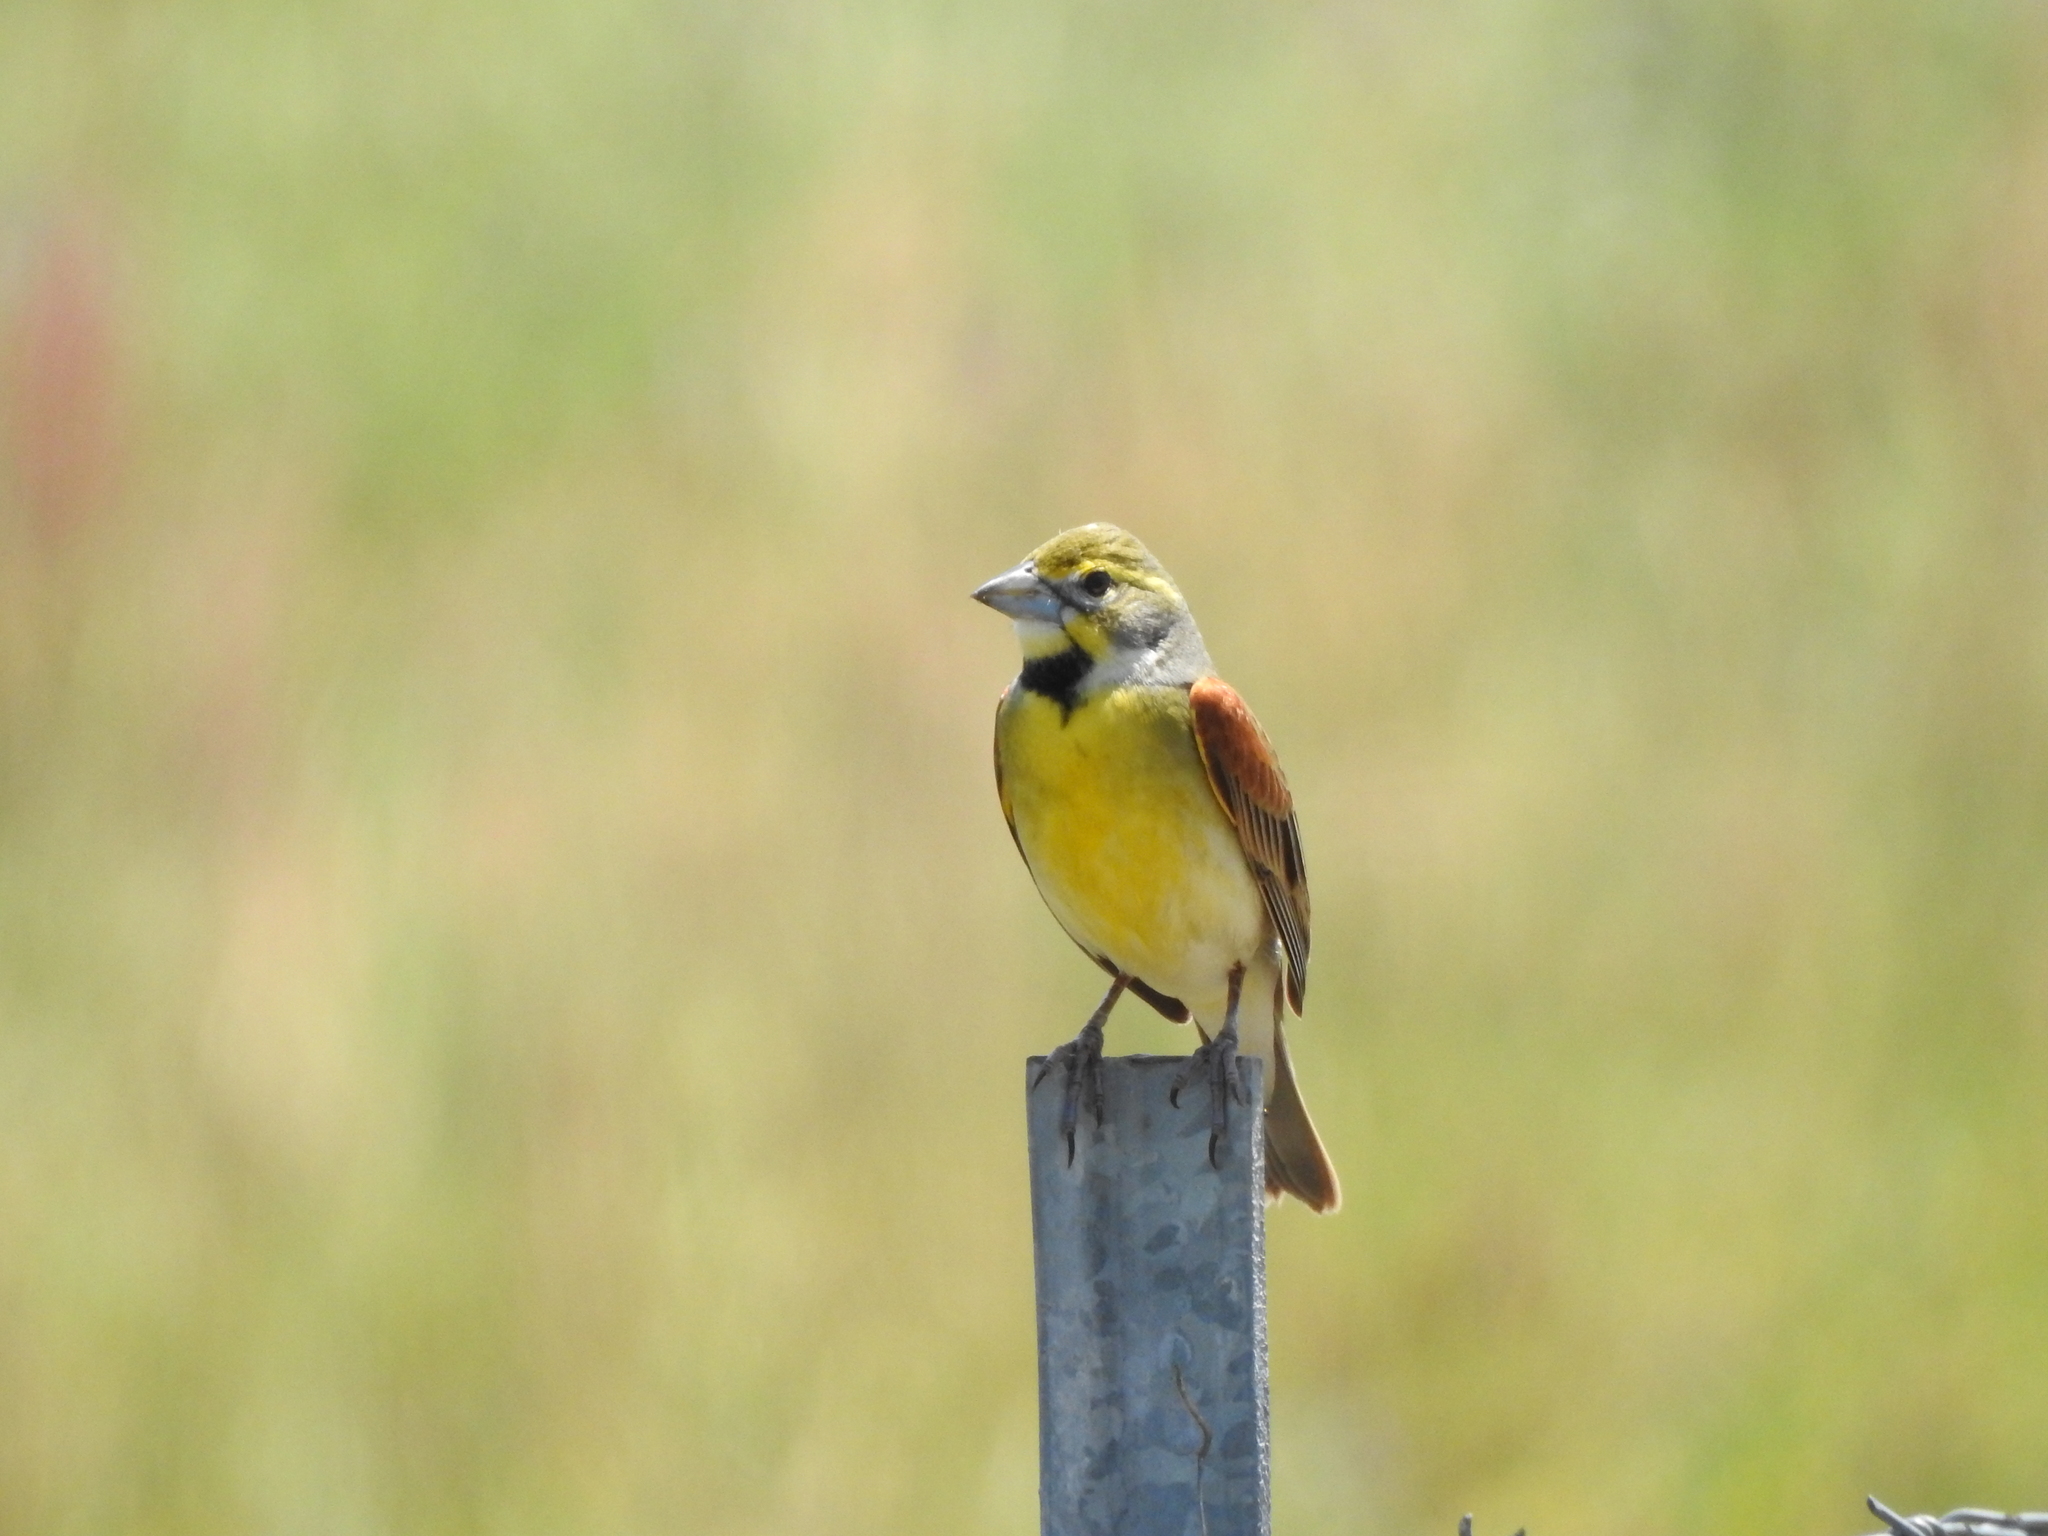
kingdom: Animalia
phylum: Chordata
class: Aves
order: Passeriformes
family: Cardinalidae
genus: Spiza
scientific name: Spiza americana
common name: Dickcissel
